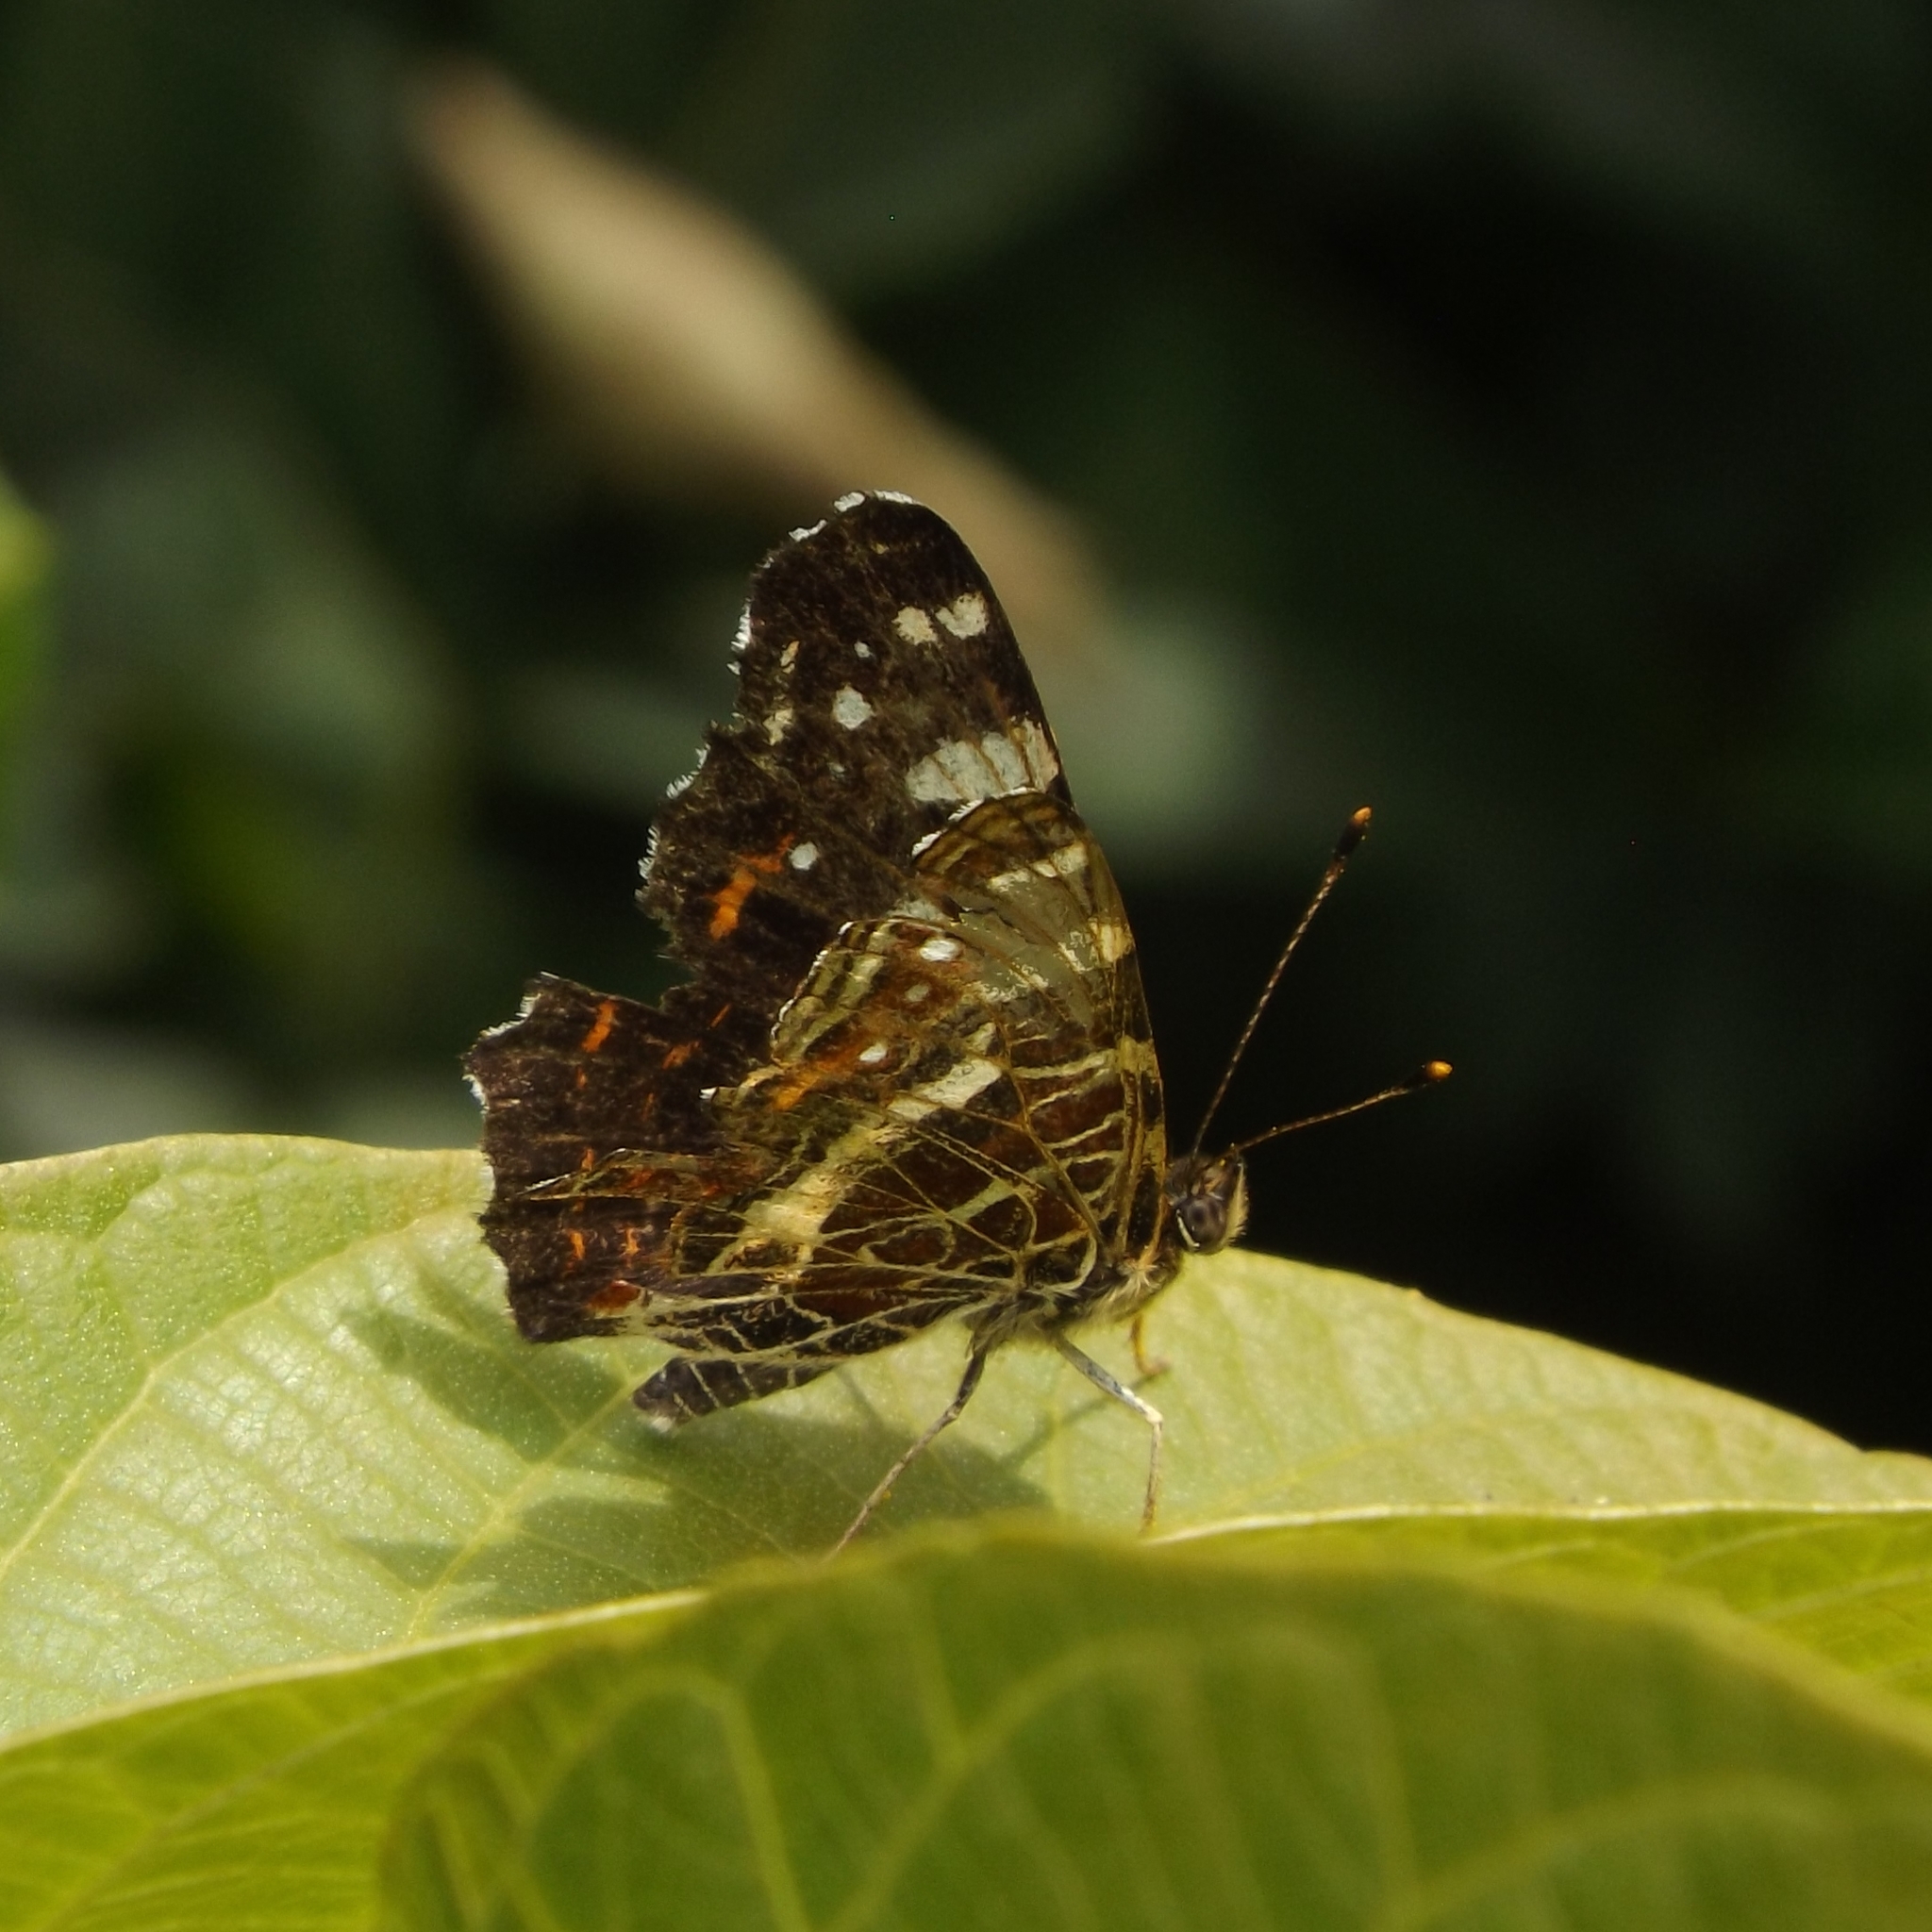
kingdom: Animalia
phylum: Arthropoda
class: Insecta
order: Lepidoptera
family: Nymphalidae
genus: Araschnia
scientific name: Araschnia levana
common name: Map butterfly
